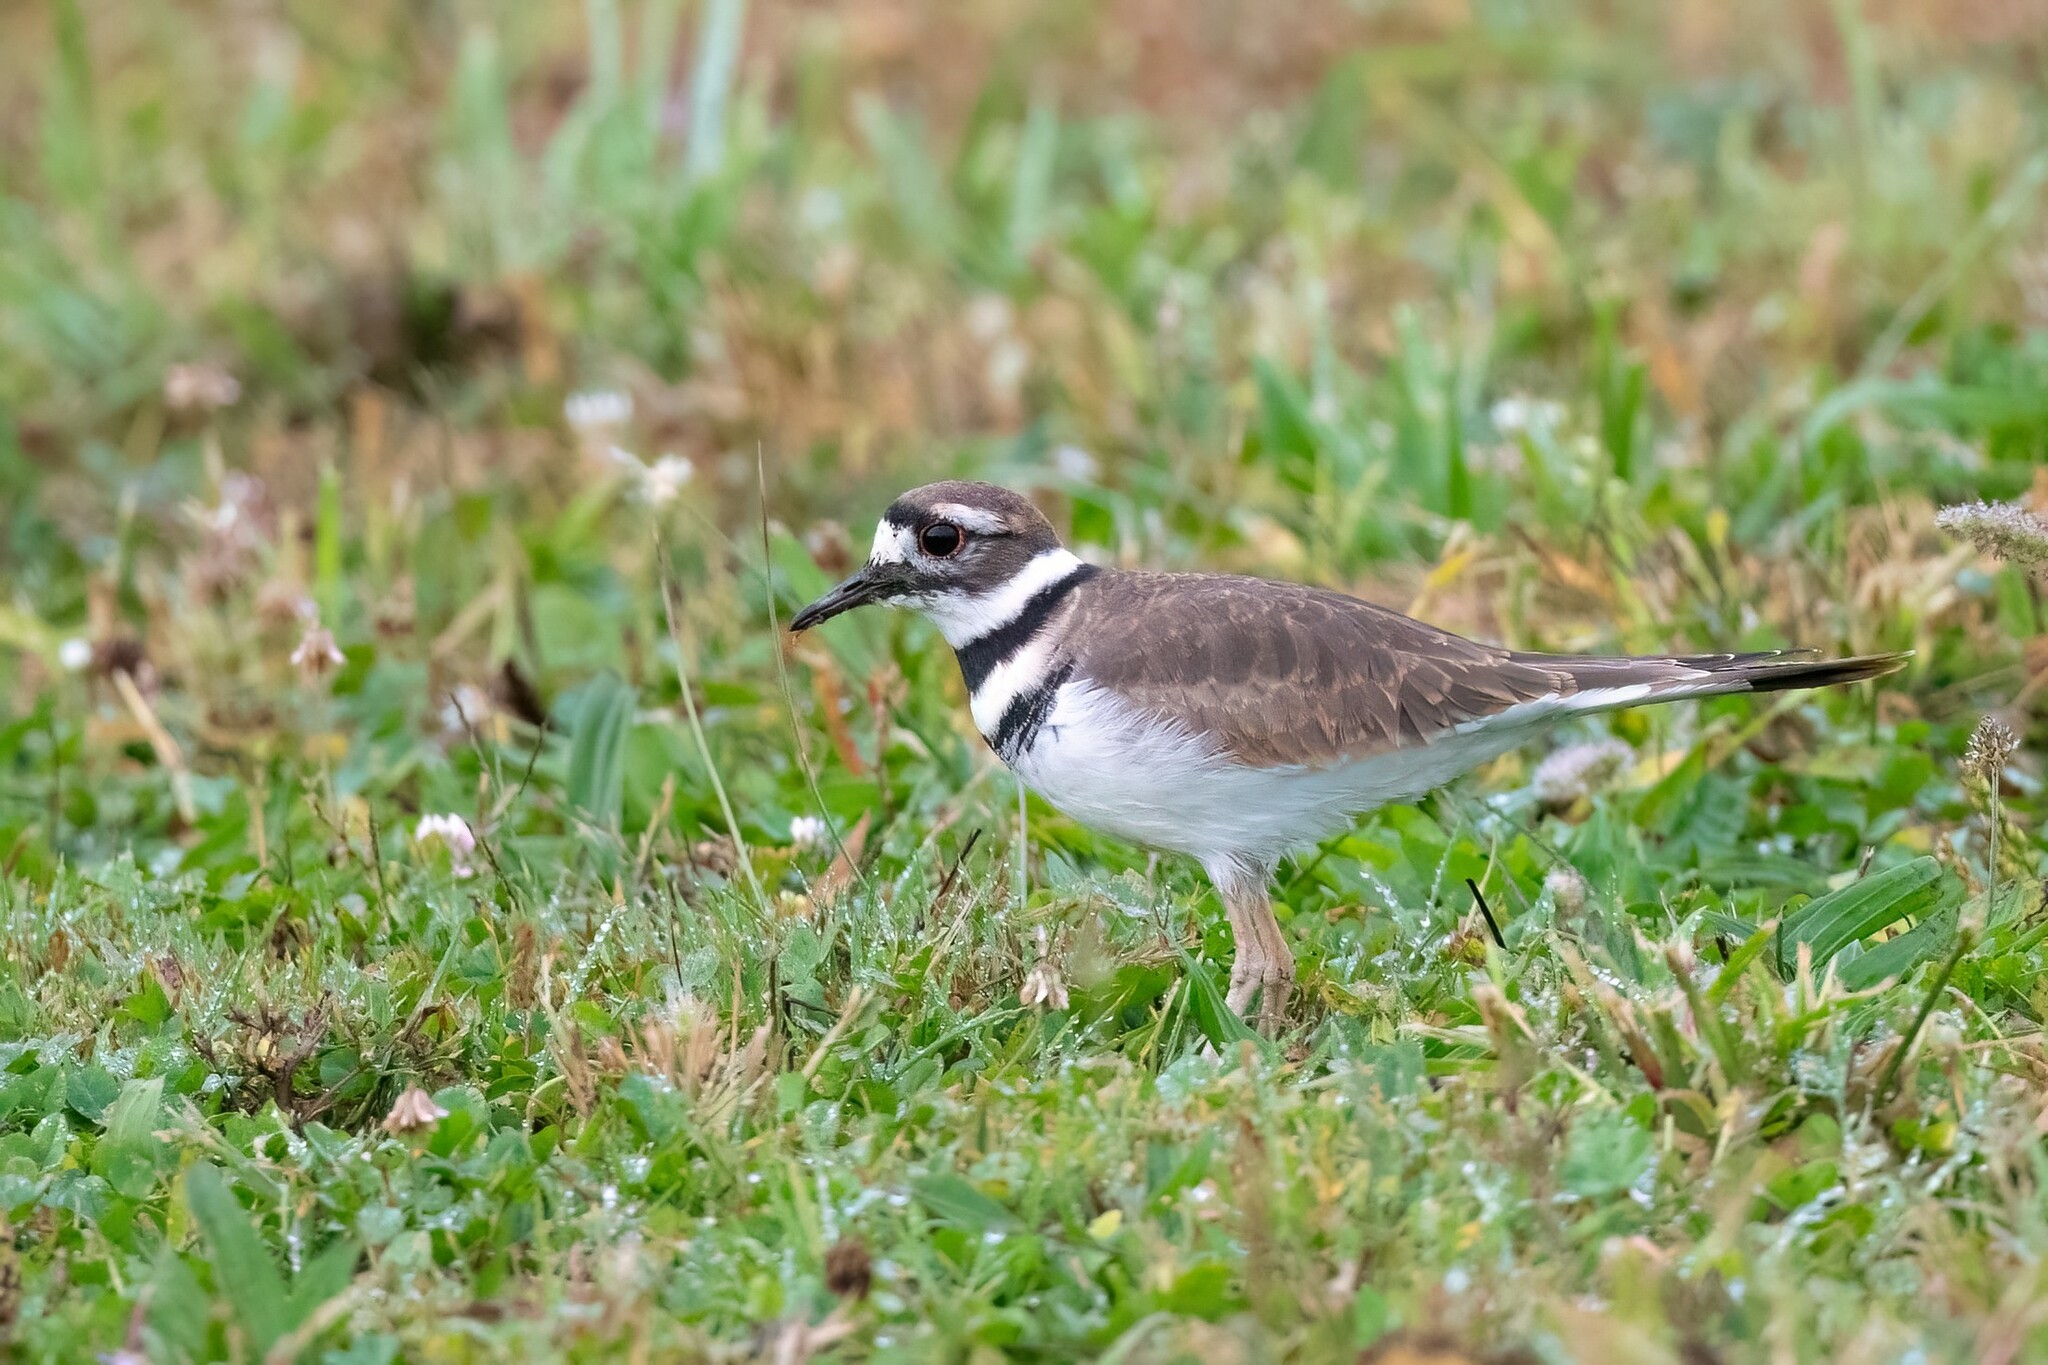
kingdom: Animalia
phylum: Chordata
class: Aves
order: Charadriiformes
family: Charadriidae
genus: Charadrius
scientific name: Charadrius vociferus
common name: Killdeer
